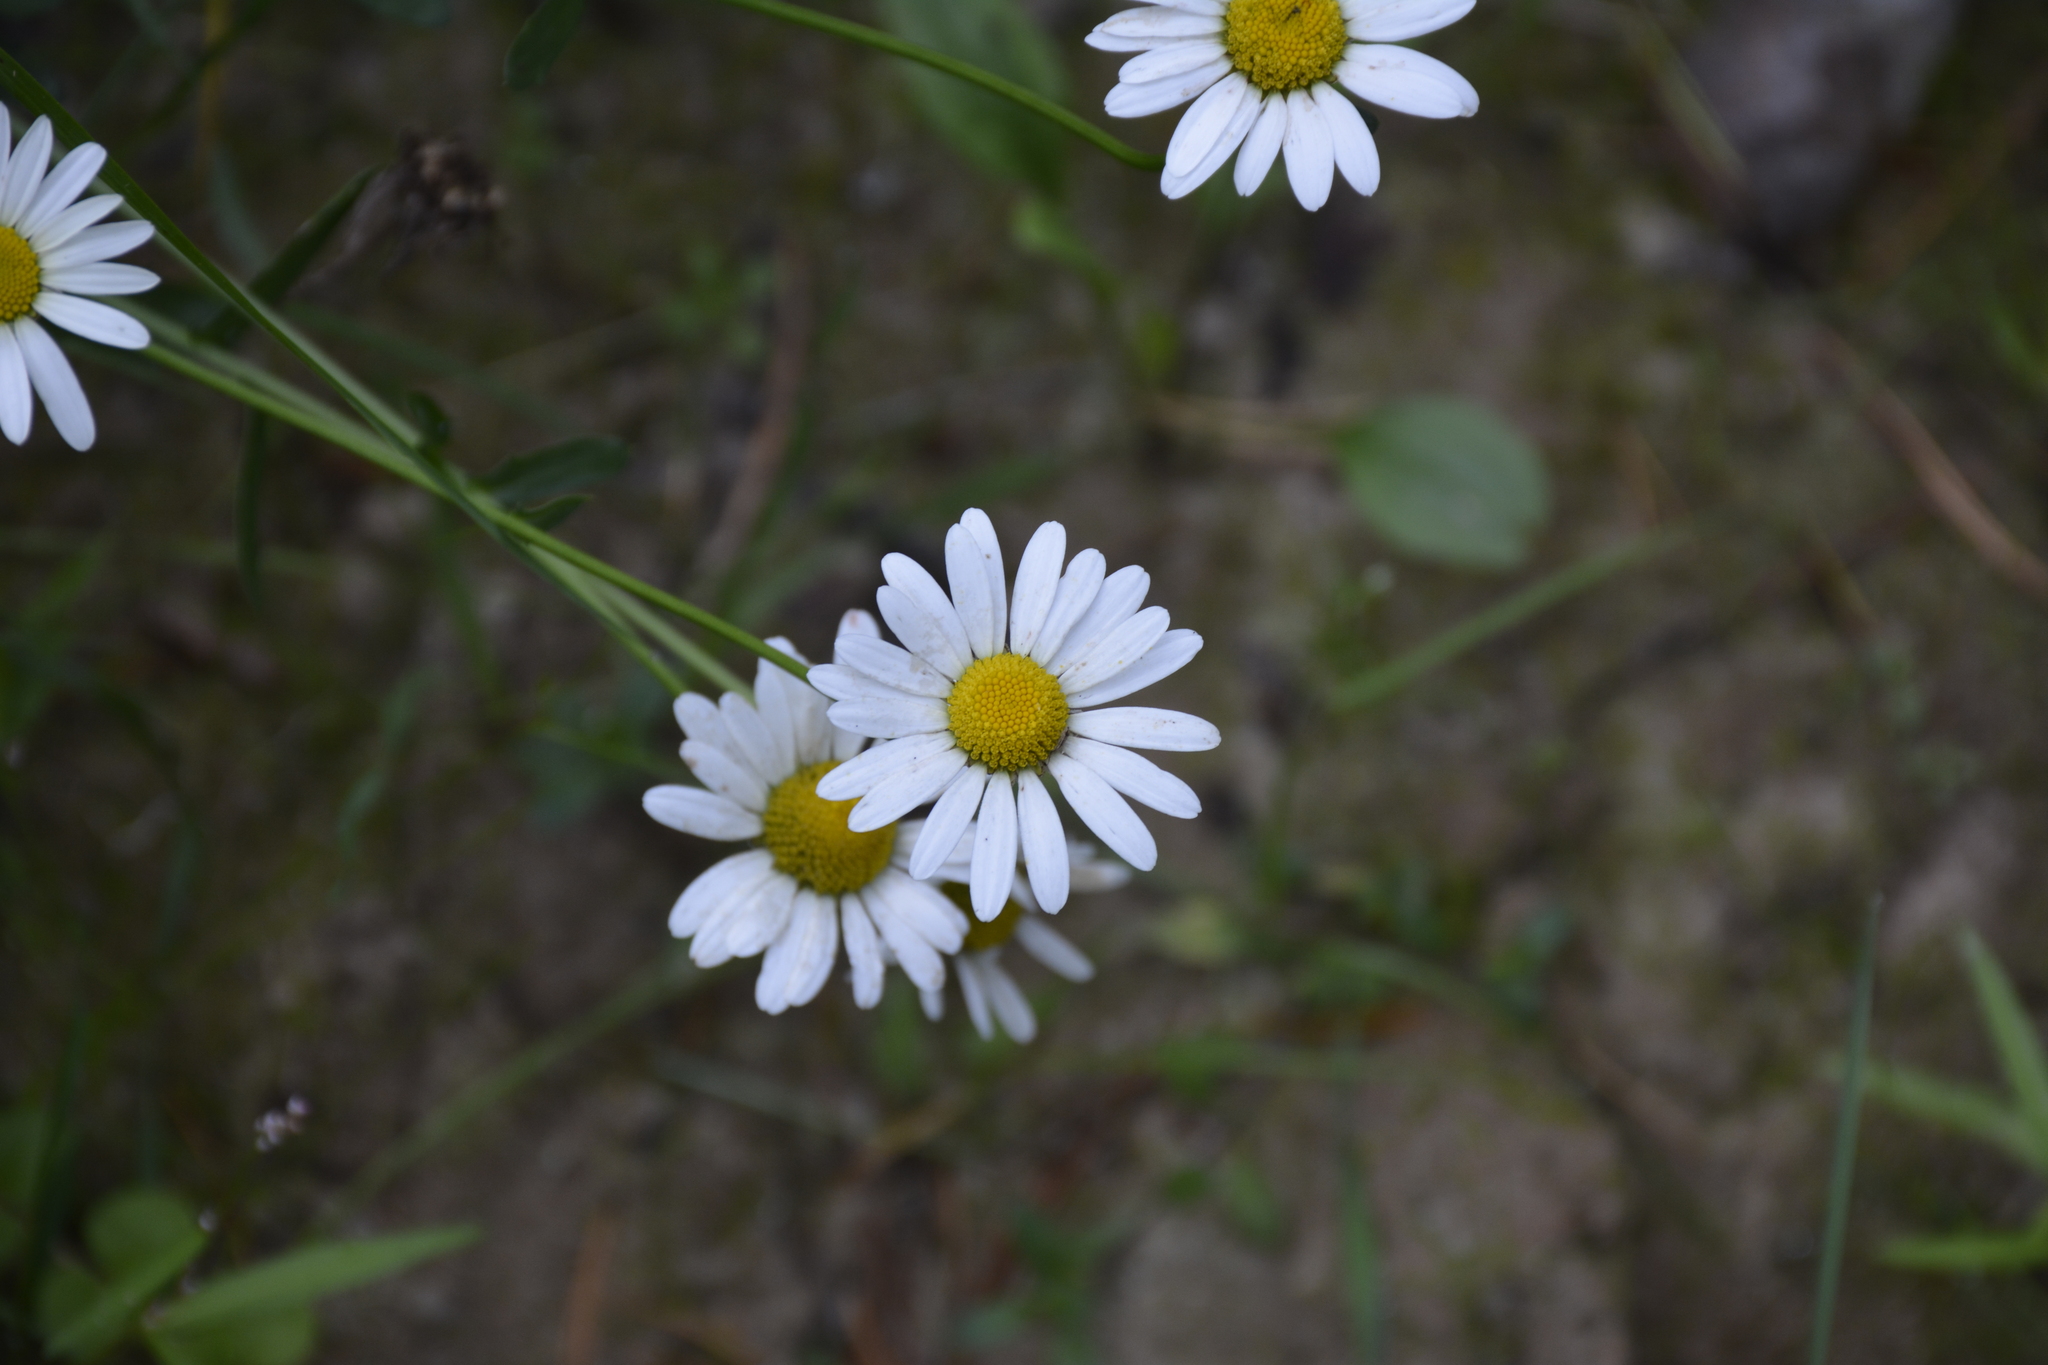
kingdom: Plantae
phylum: Tracheophyta
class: Magnoliopsida
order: Asterales
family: Asteraceae
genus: Leucanthemum
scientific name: Leucanthemum vulgare
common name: Oxeye daisy
